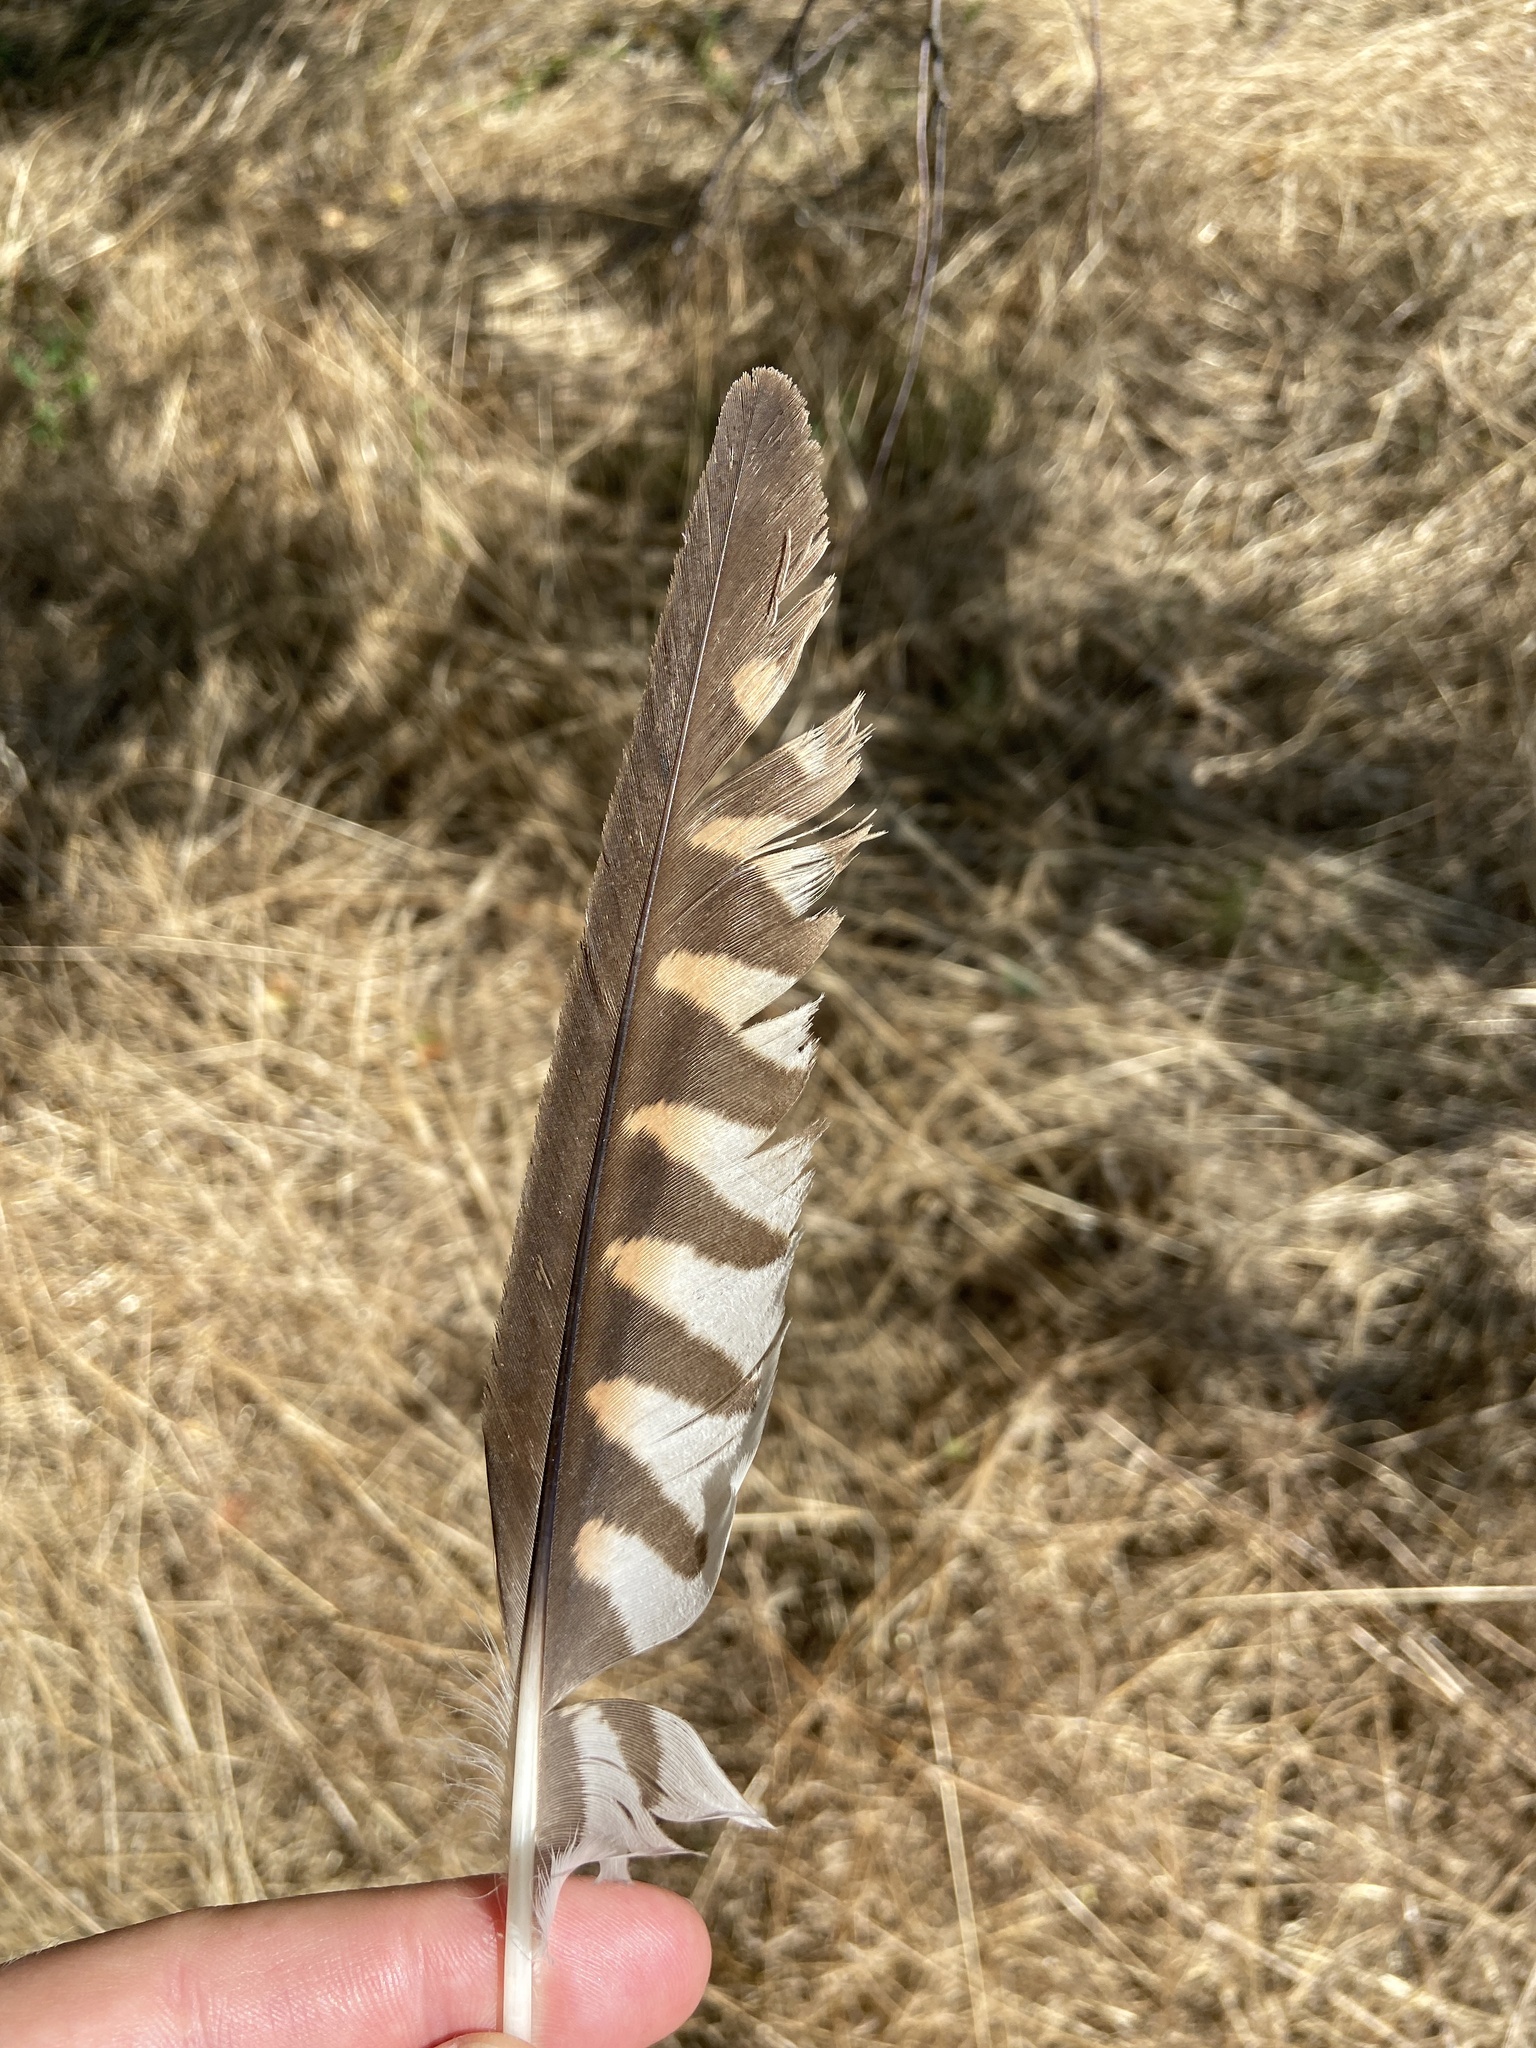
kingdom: Animalia
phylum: Chordata
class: Aves
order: Falconiformes
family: Falconidae
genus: Falco
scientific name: Falco tinnunculus
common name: Common kestrel
